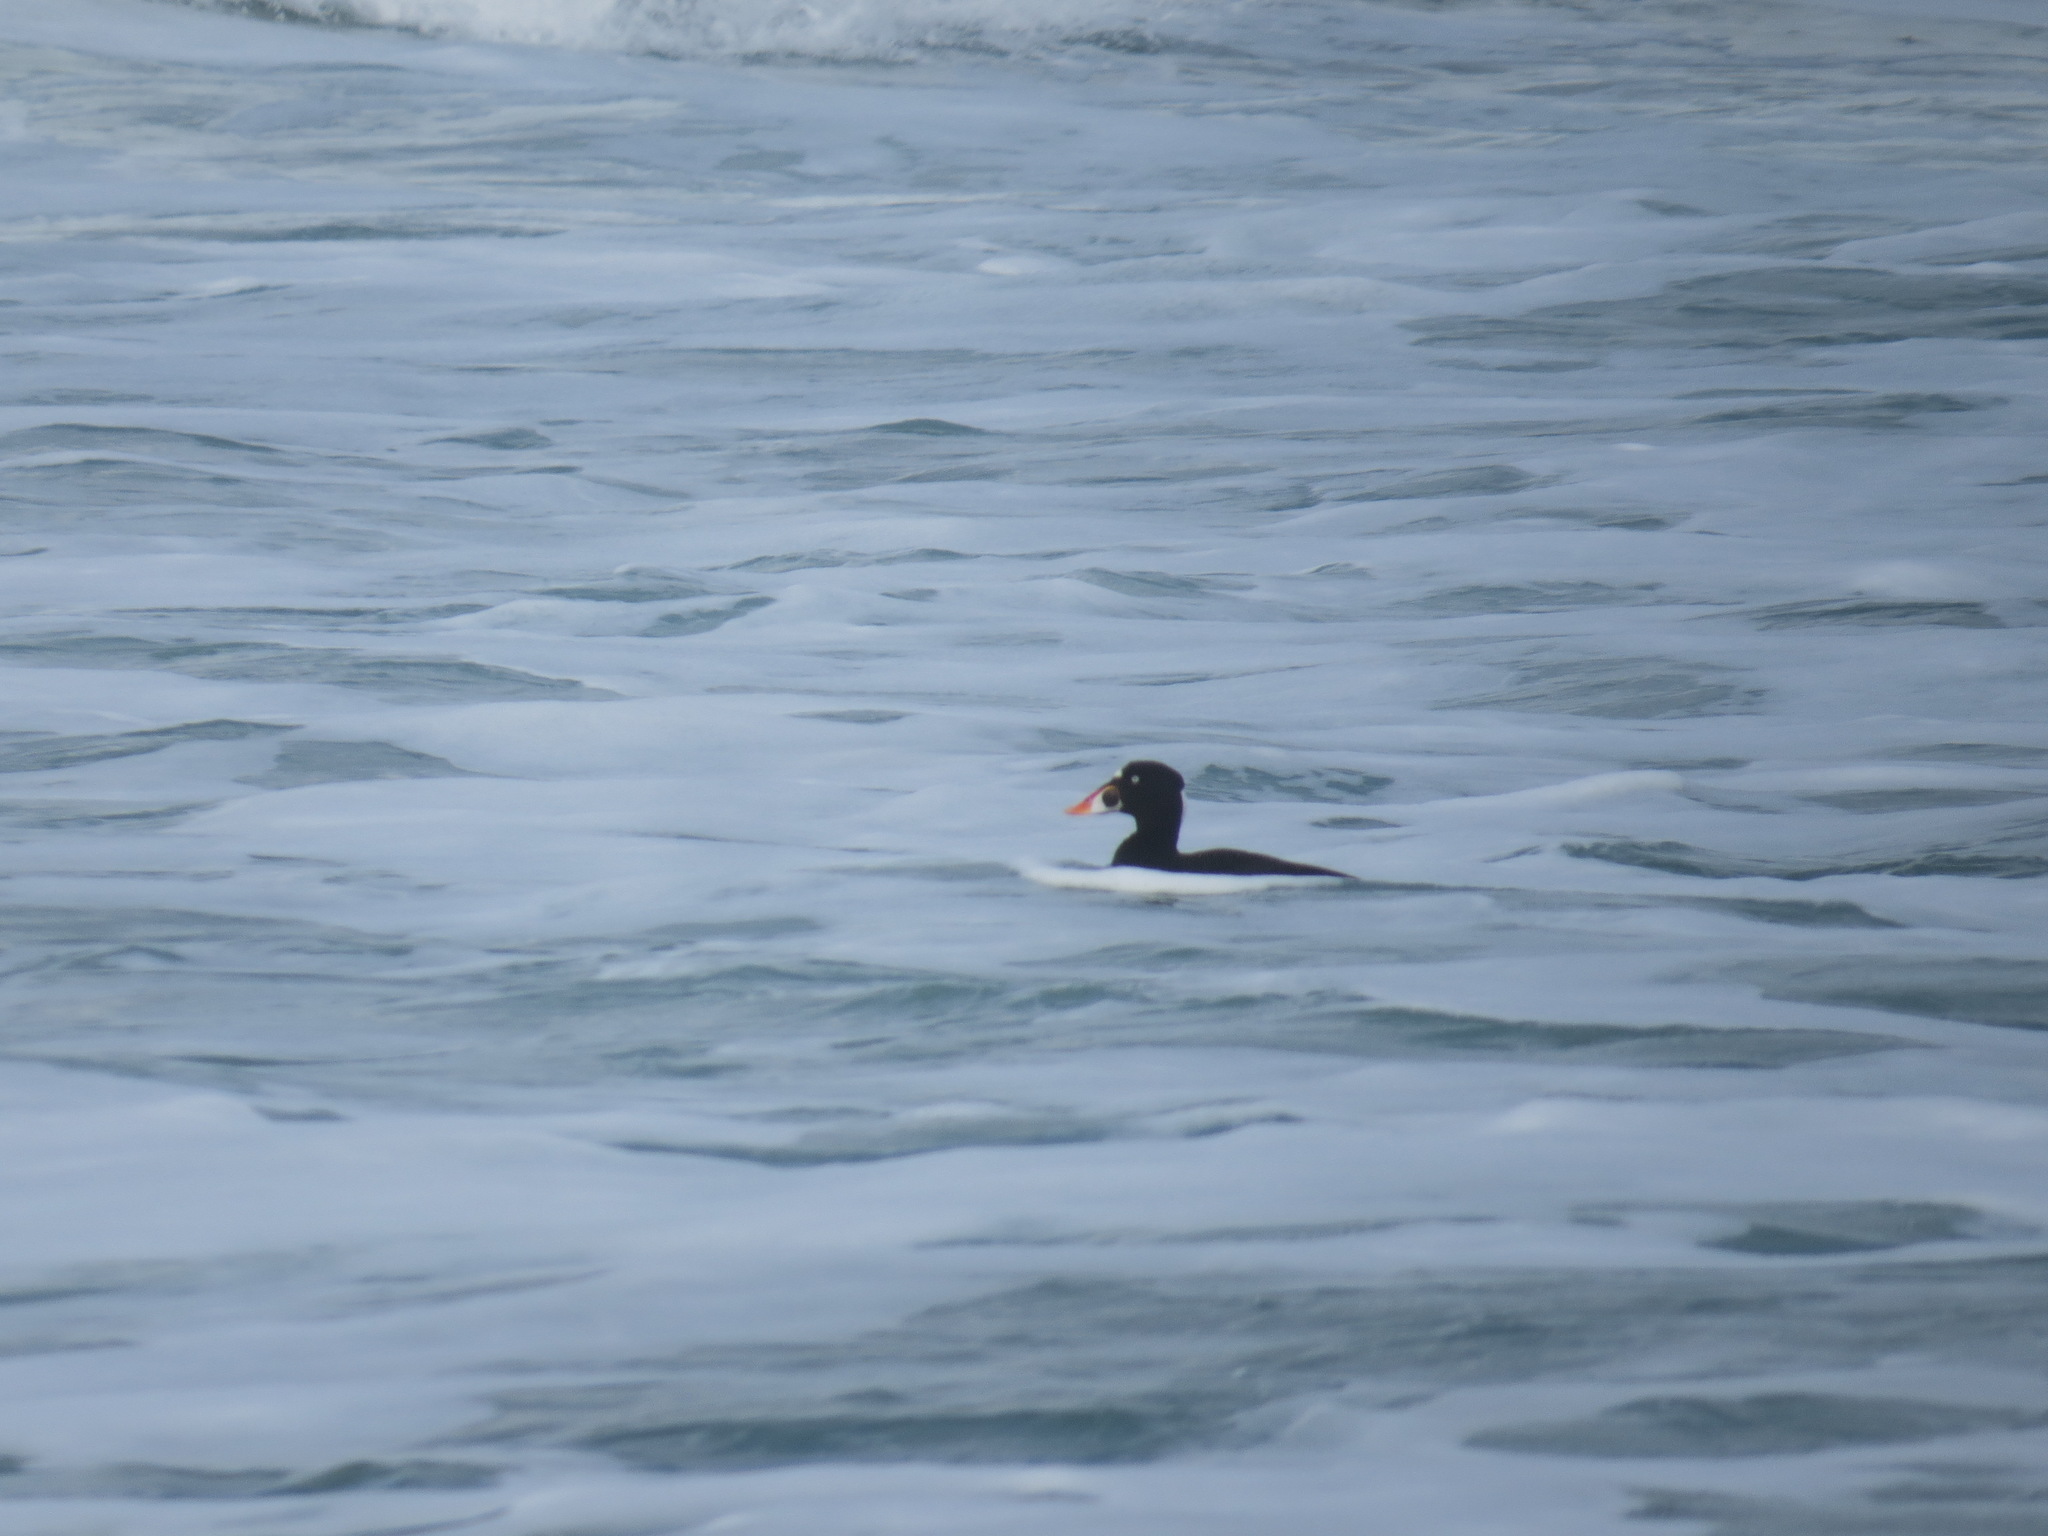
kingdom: Animalia
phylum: Chordata
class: Aves
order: Anseriformes
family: Anatidae
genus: Melanitta
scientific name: Melanitta perspicillata
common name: Surf scoter
